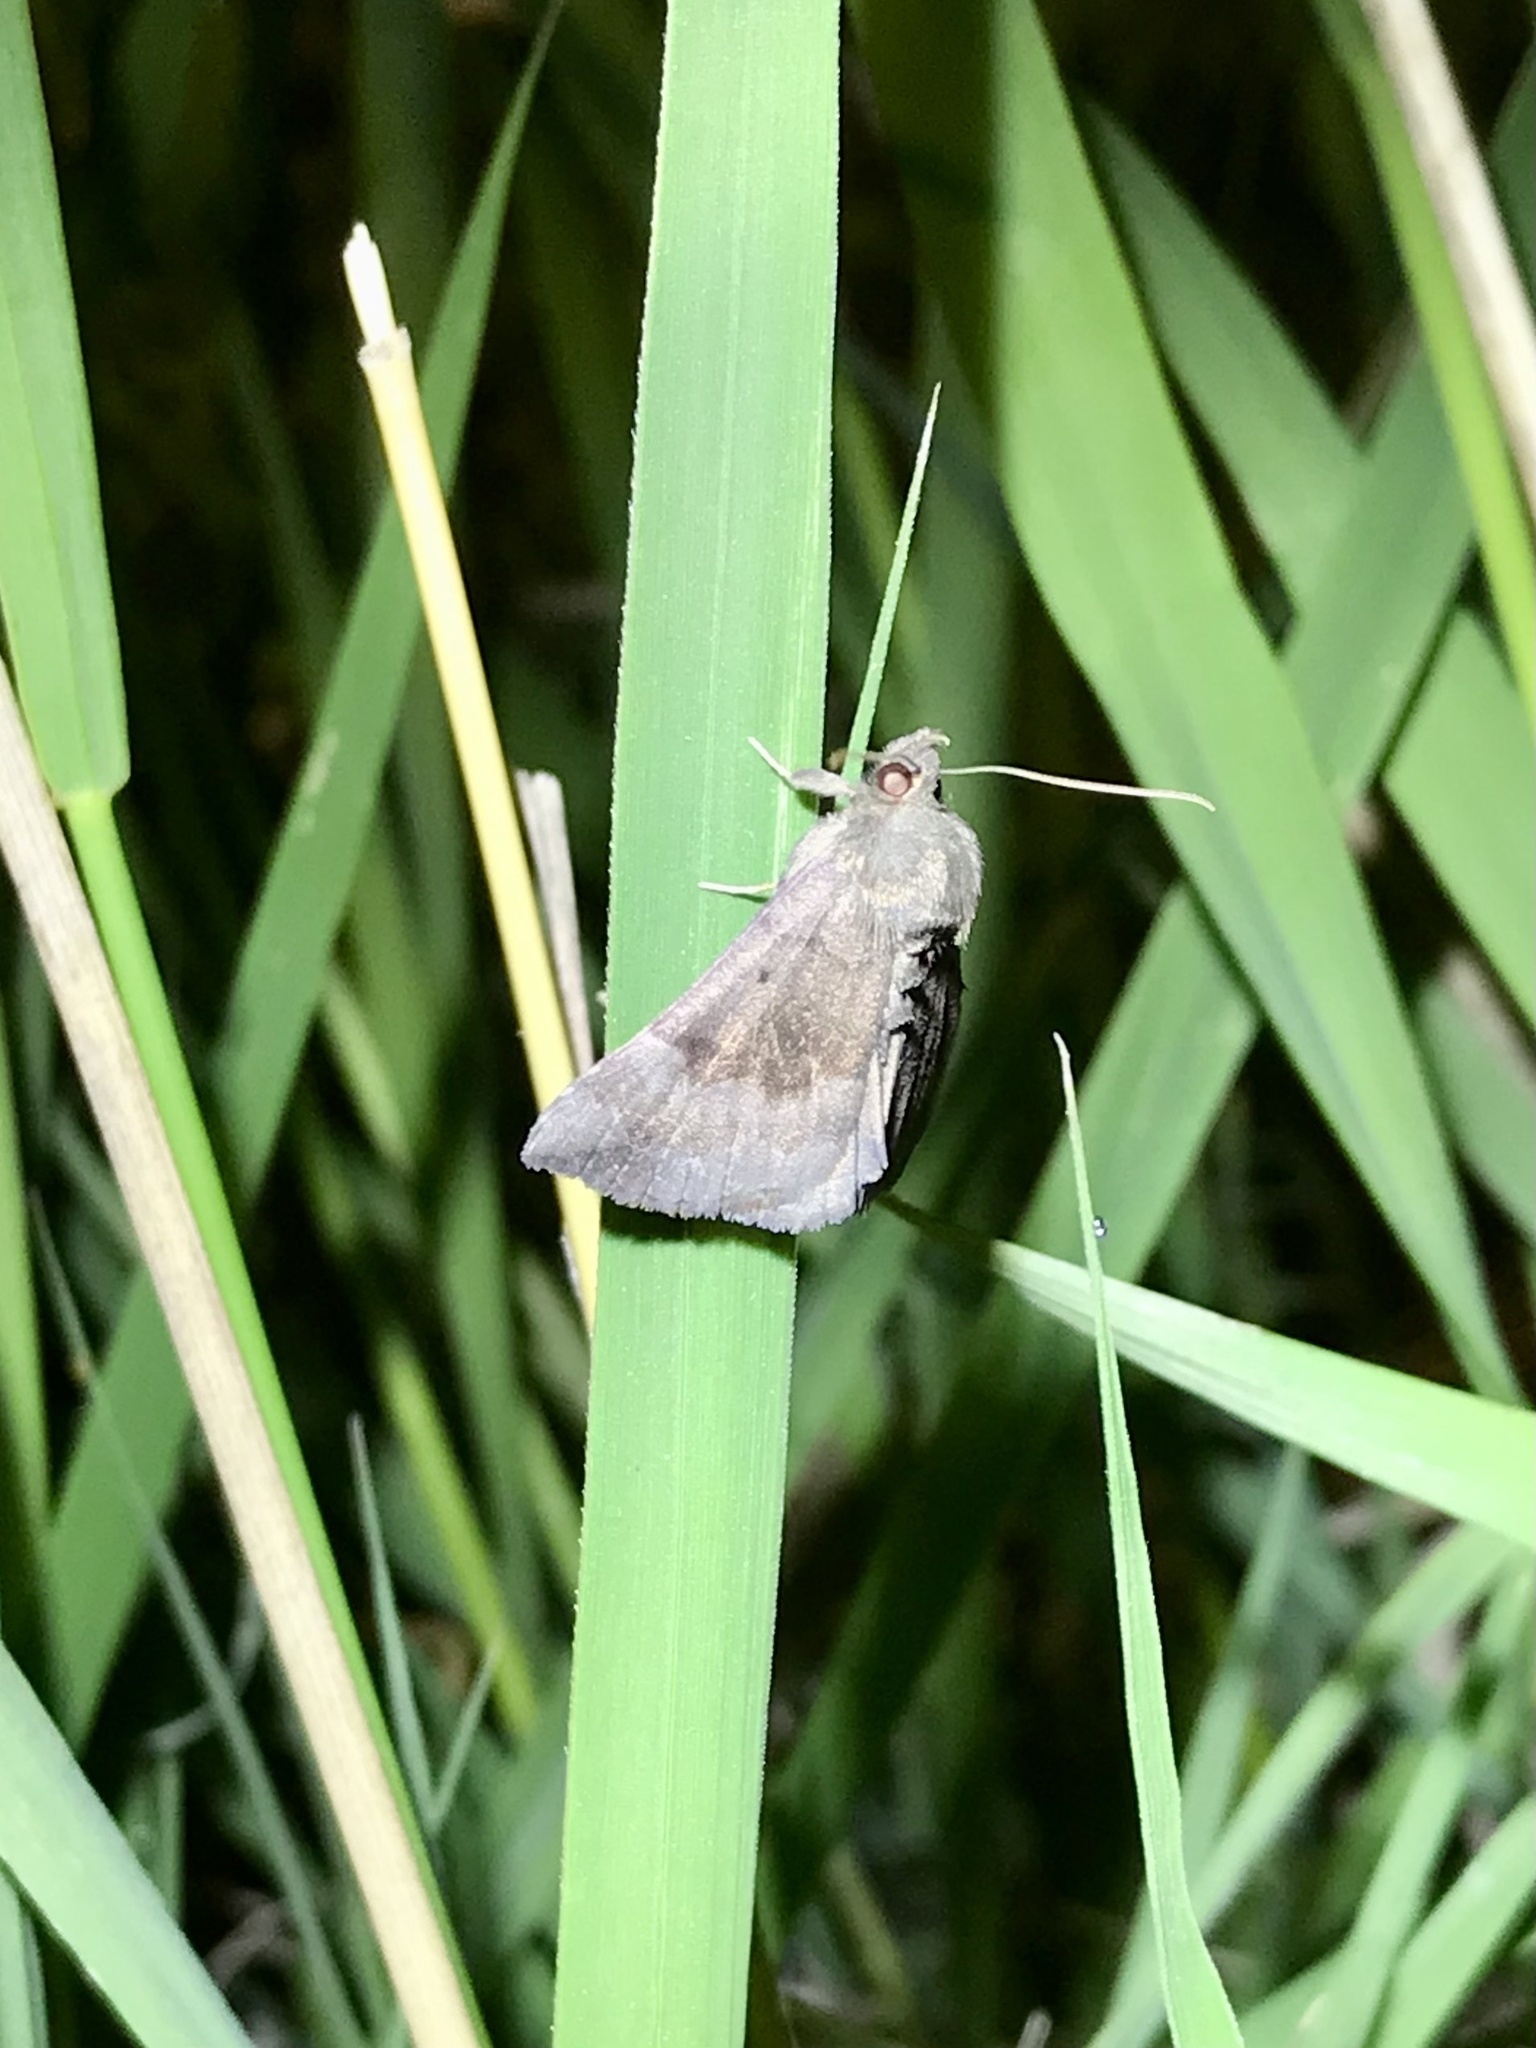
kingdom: Animalia
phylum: Arthropoda
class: Insecta
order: Lepidoptera
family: Erebidae
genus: Hypena
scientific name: Hypena madefactalis
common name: Gray-edged snout
